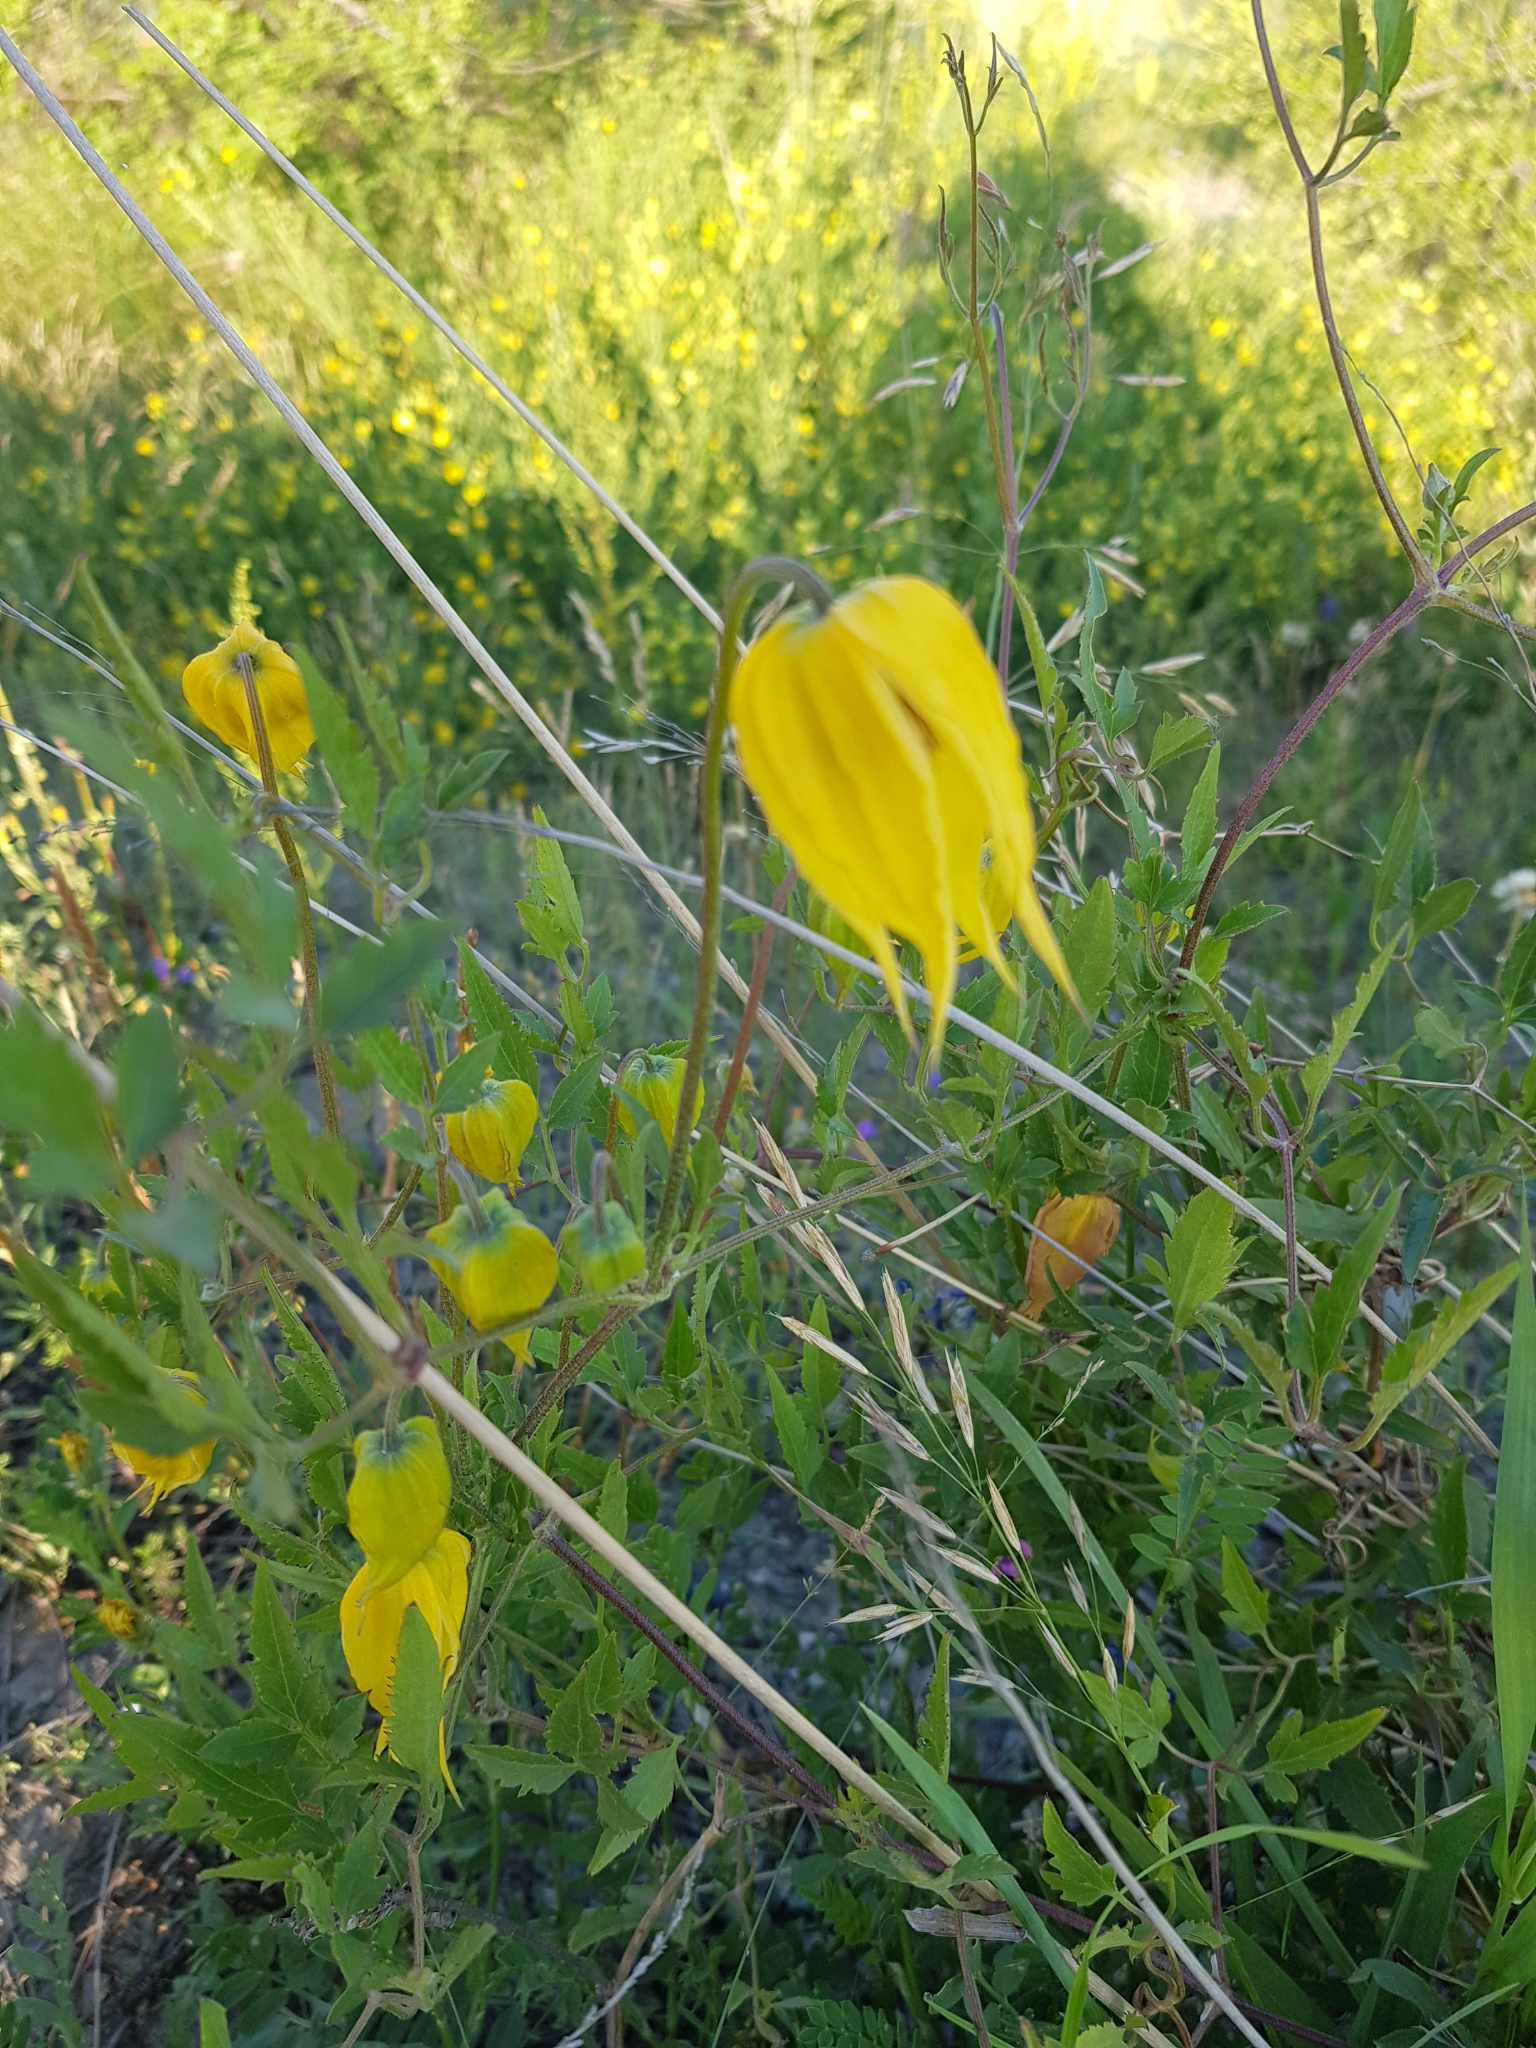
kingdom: Plantae
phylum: Tracheophyta
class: Magnoliopsida
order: Ranunculales
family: Ranunculaceae
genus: Clematis
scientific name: Clematis tangutica
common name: Orange-peel clematis
